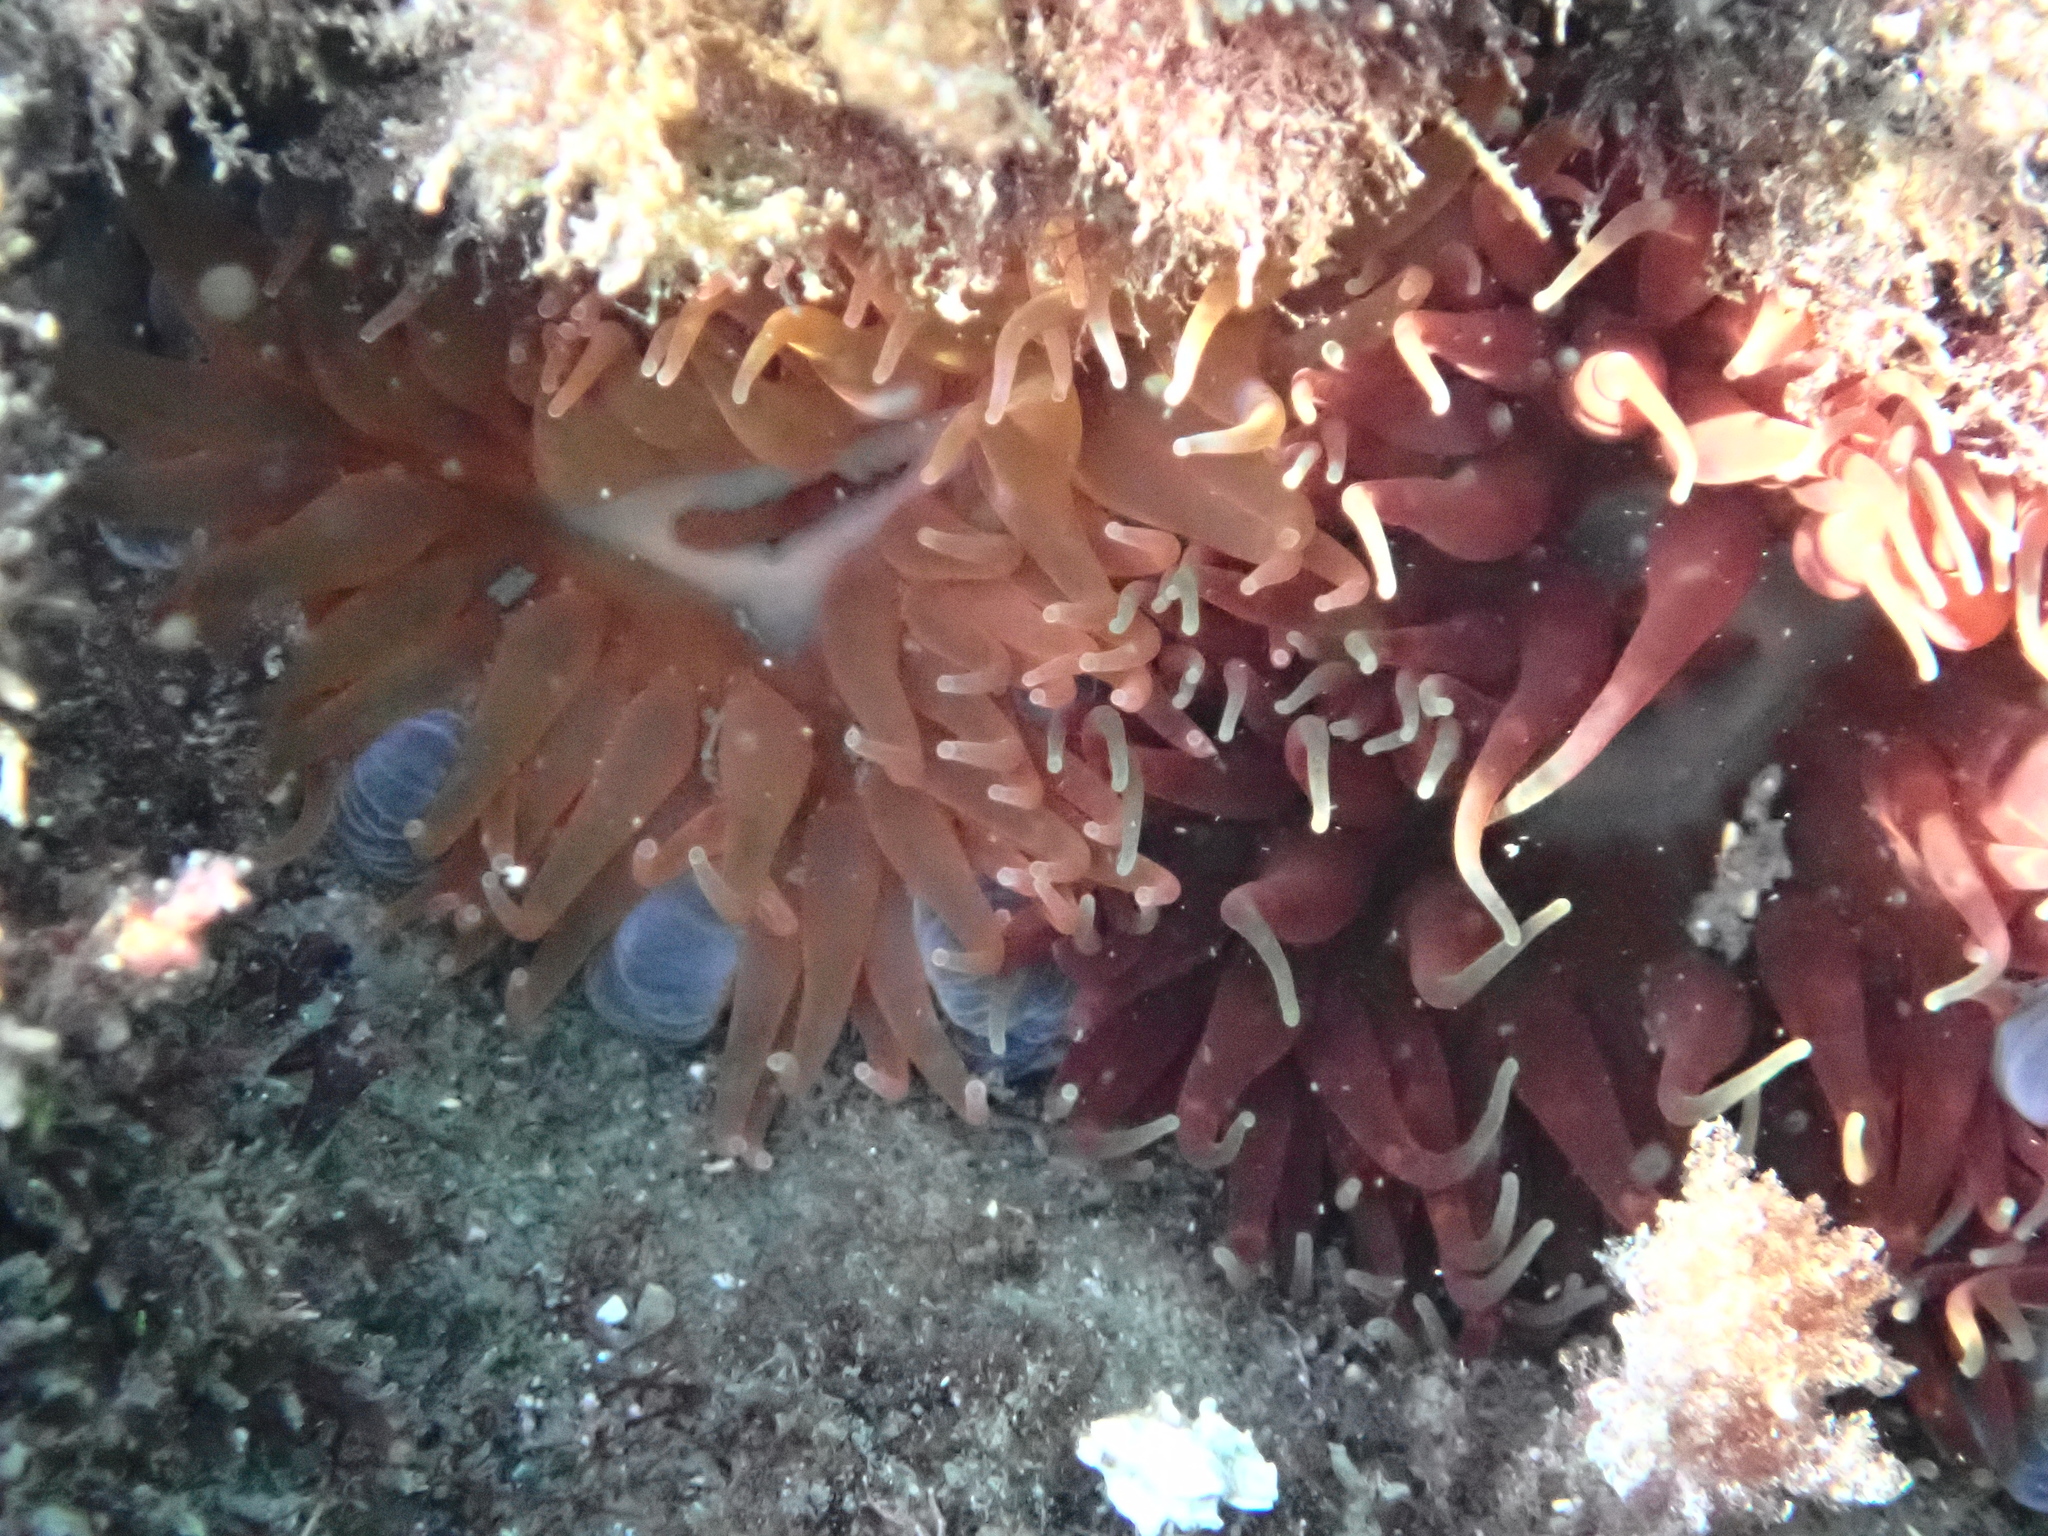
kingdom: Animalia
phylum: Cnidaria
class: Anthozoa
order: Actiniaria
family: Actiniidae
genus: Phlyctenanthus
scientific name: Phlyctenanthus australis
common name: Southern anemone
